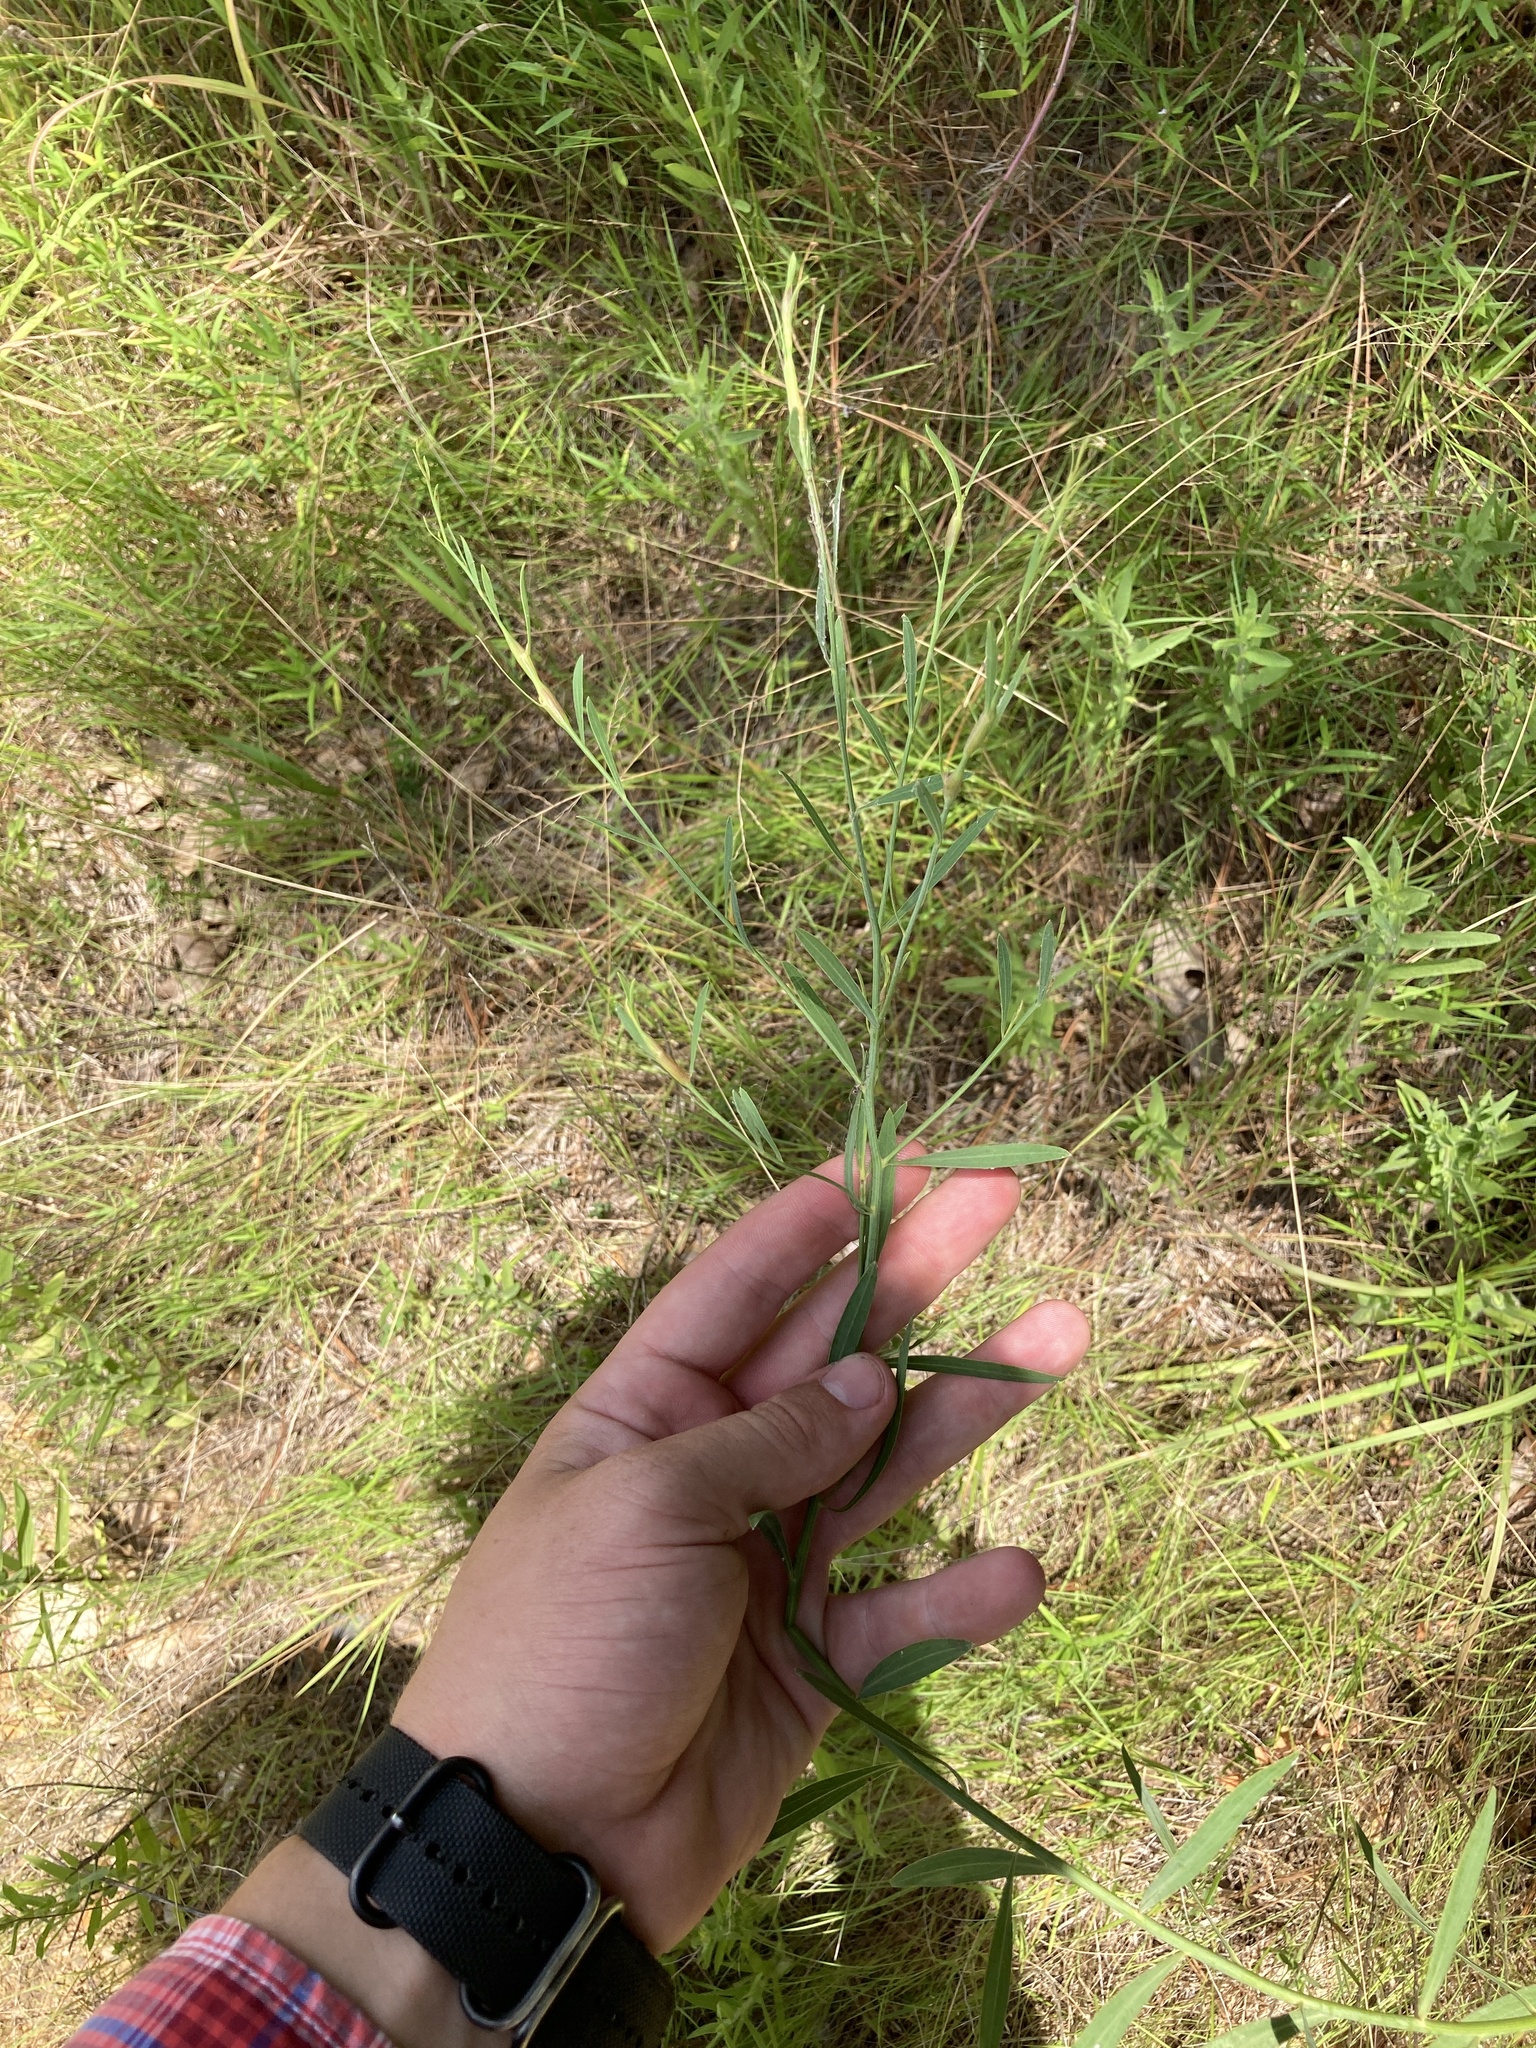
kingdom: Plantae
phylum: Tracheophyta
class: Magnoliopsida
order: Asterales
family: Asteraceae
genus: Boltonia
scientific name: Boltonia diffusa
